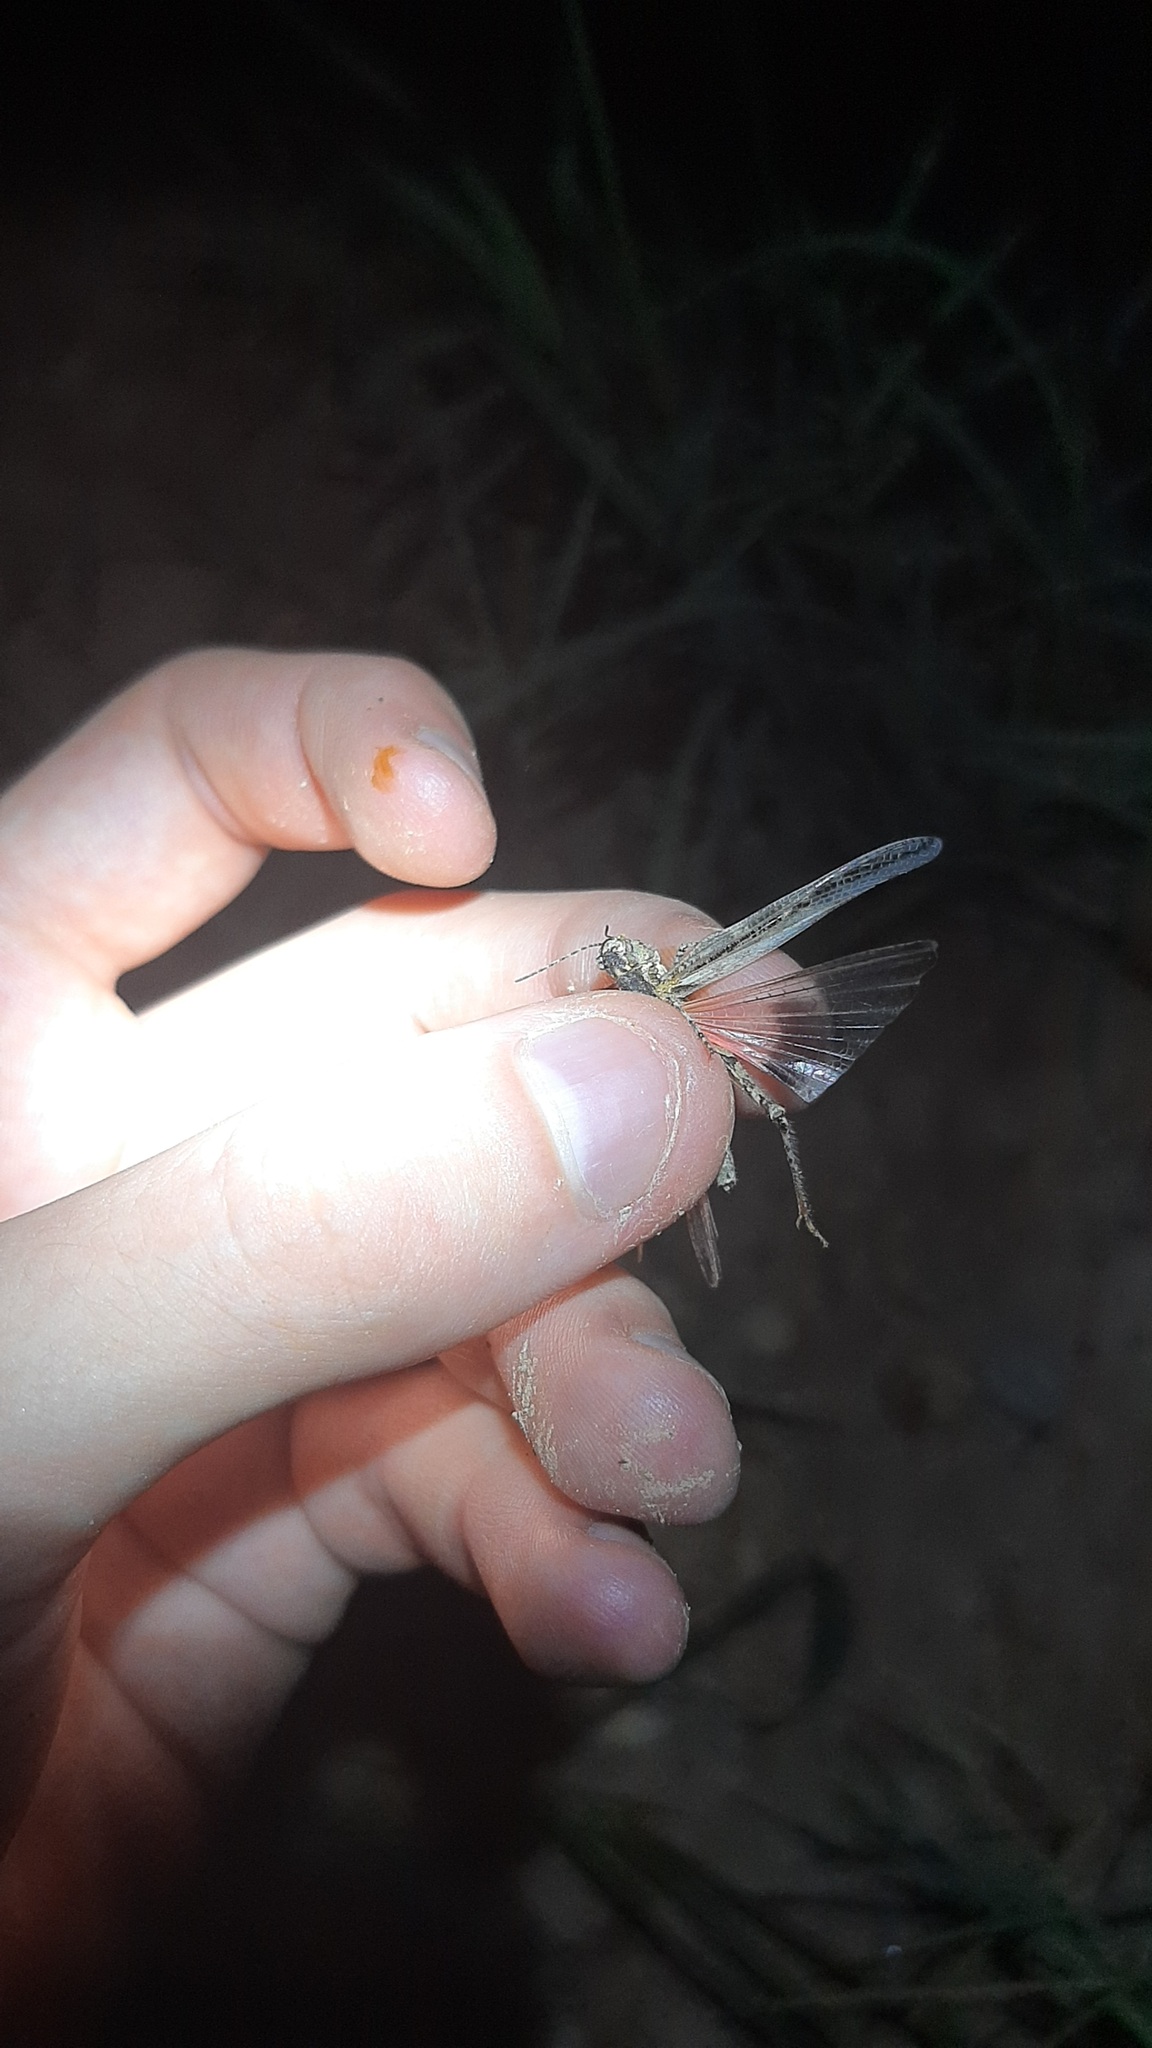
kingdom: Animalia
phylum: Arthropoda
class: Insecta
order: Orthoptera
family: Acrididae
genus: Acrotylus
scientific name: Acrotylus patruelis
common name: Slender burrowing grasshopper
